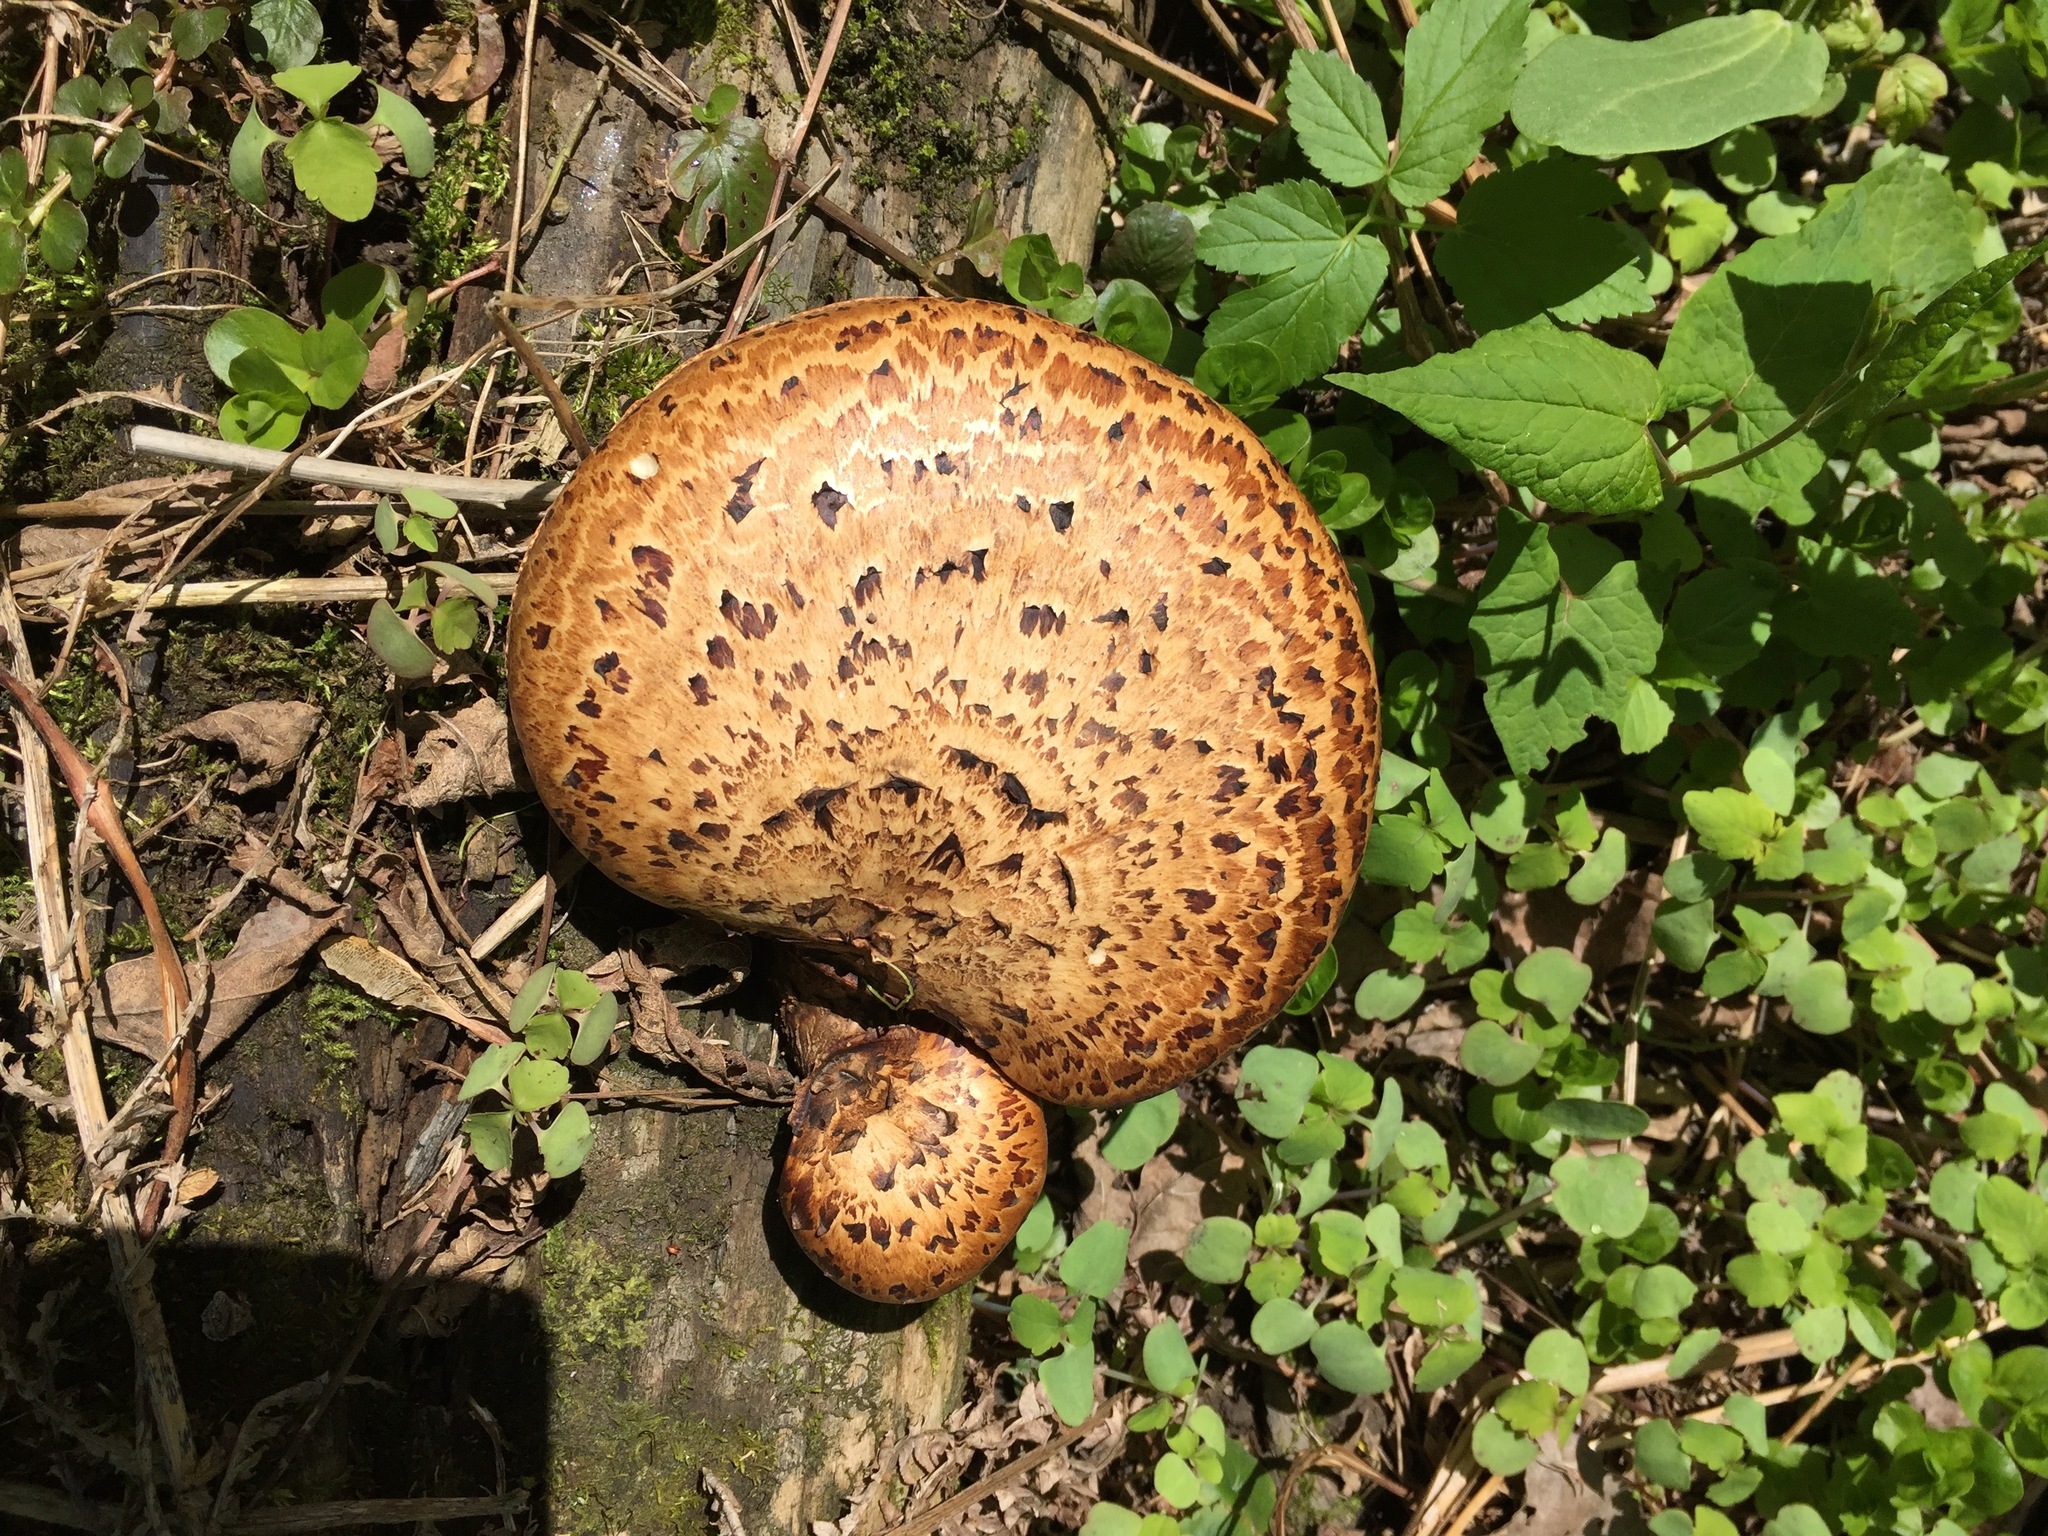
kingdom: Fungi
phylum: Basidiomycota
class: Agaricomycetes
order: Polyporales
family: Polyporaceae
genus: Cerioporus
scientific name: Cerioporus squamosus
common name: Dryad's saddle
